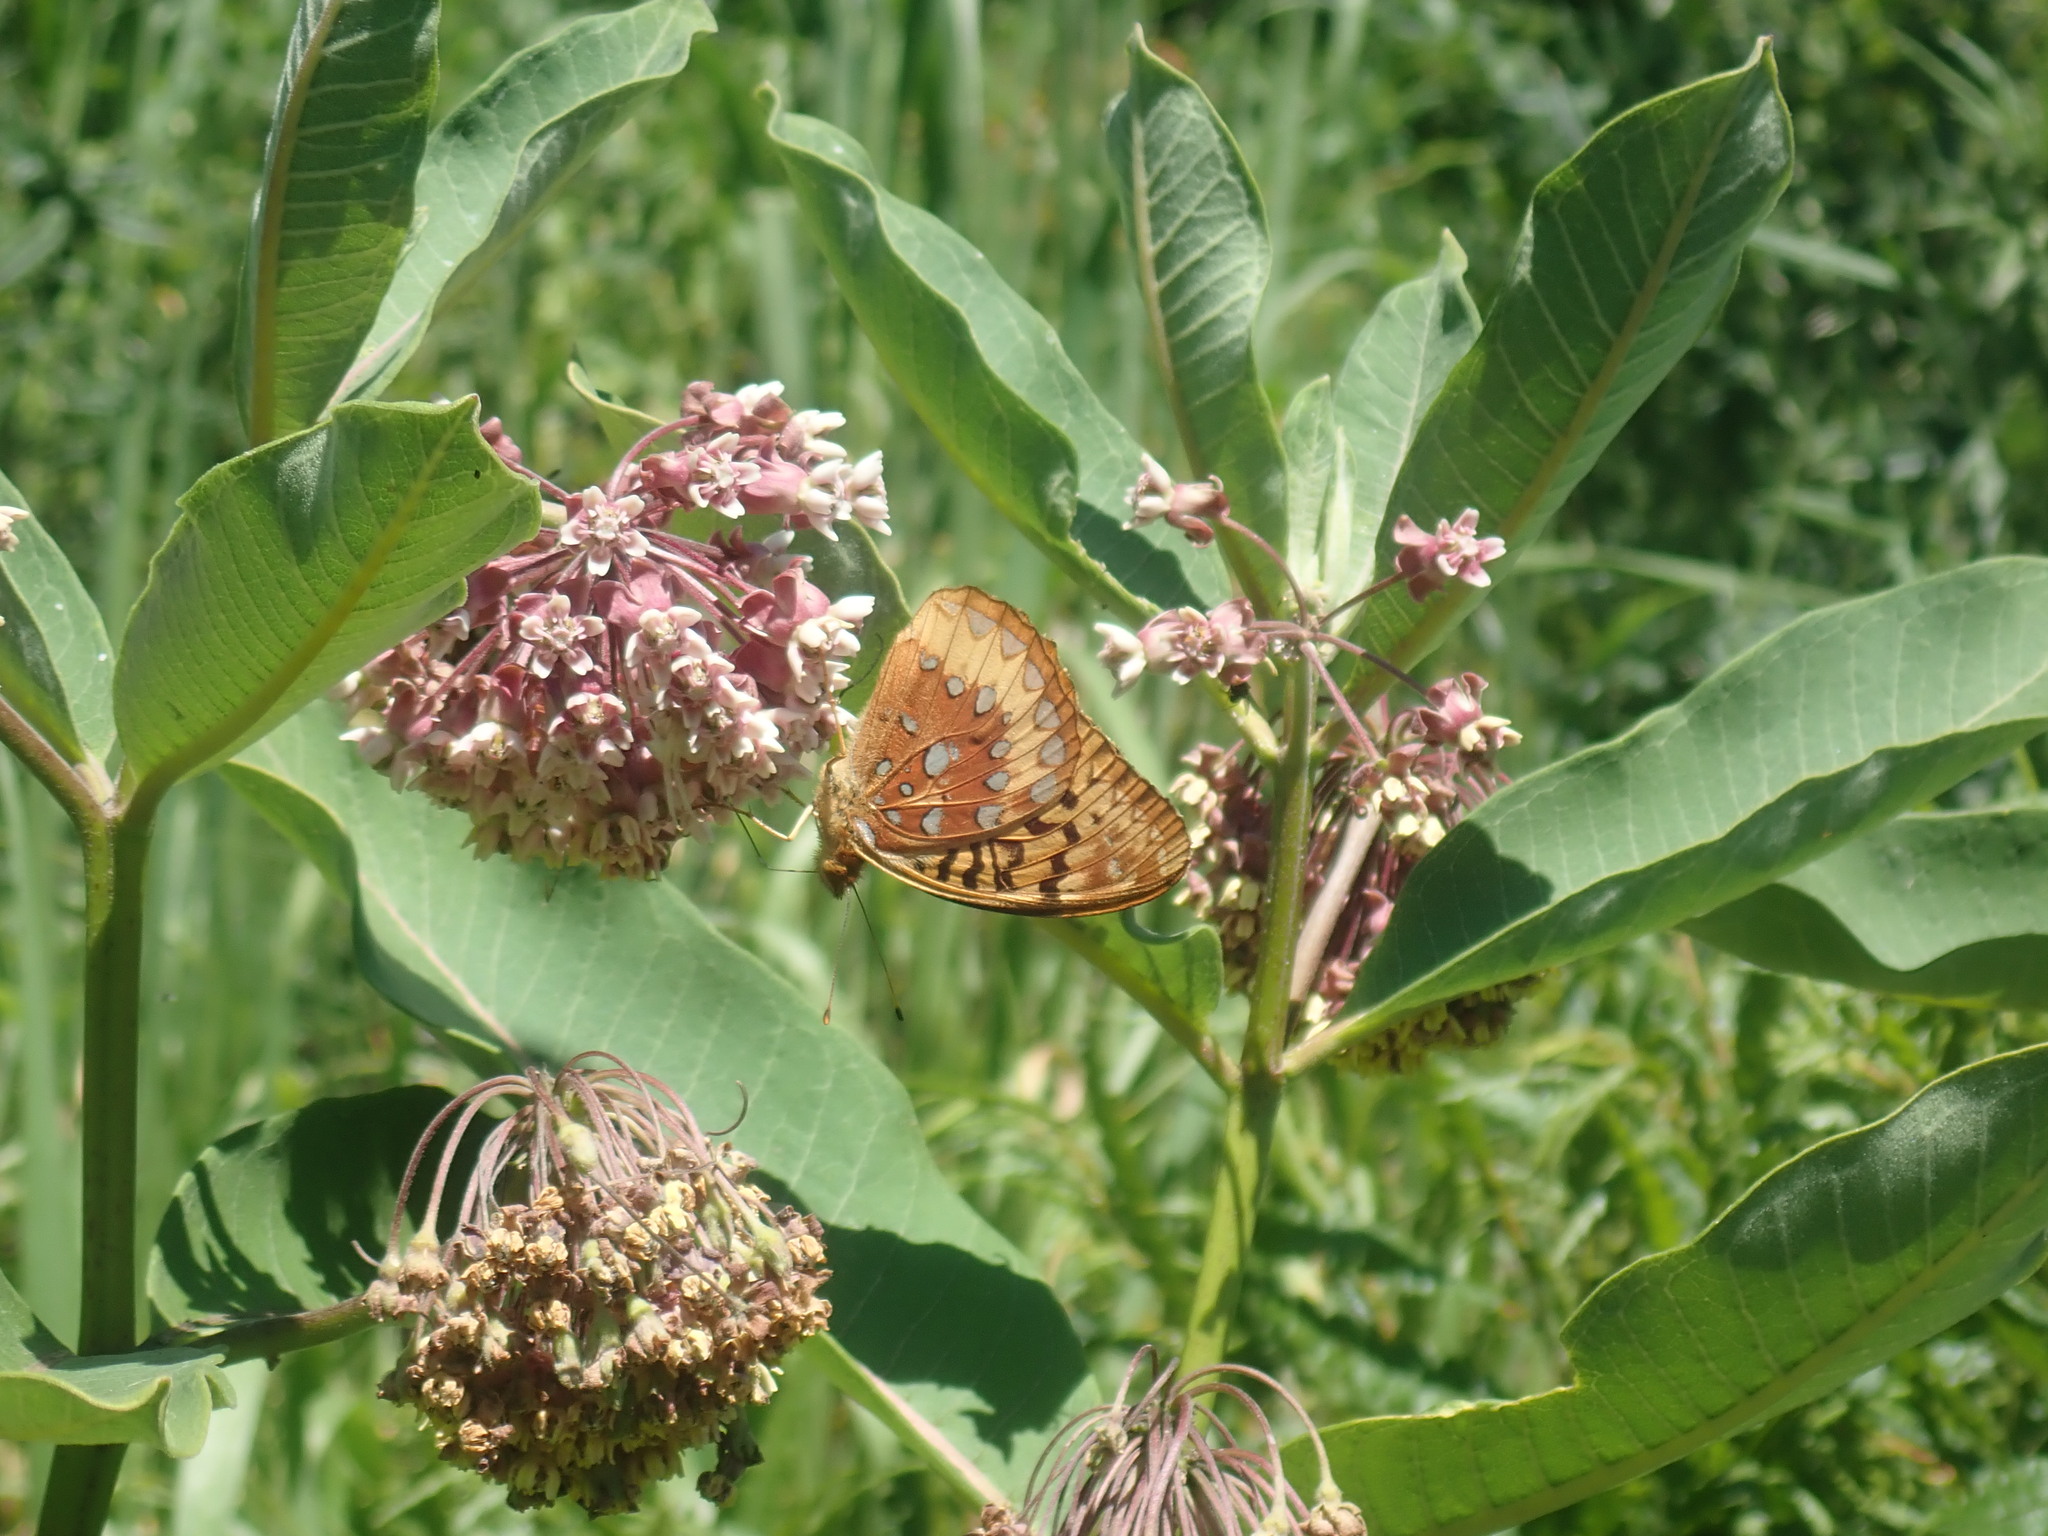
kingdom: Animalia
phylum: Arthropoda
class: Insecta
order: Lepidoptera
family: Nymphalidae
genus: Speyeria
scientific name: Speyeria cybele
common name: Great spangled fritillary
